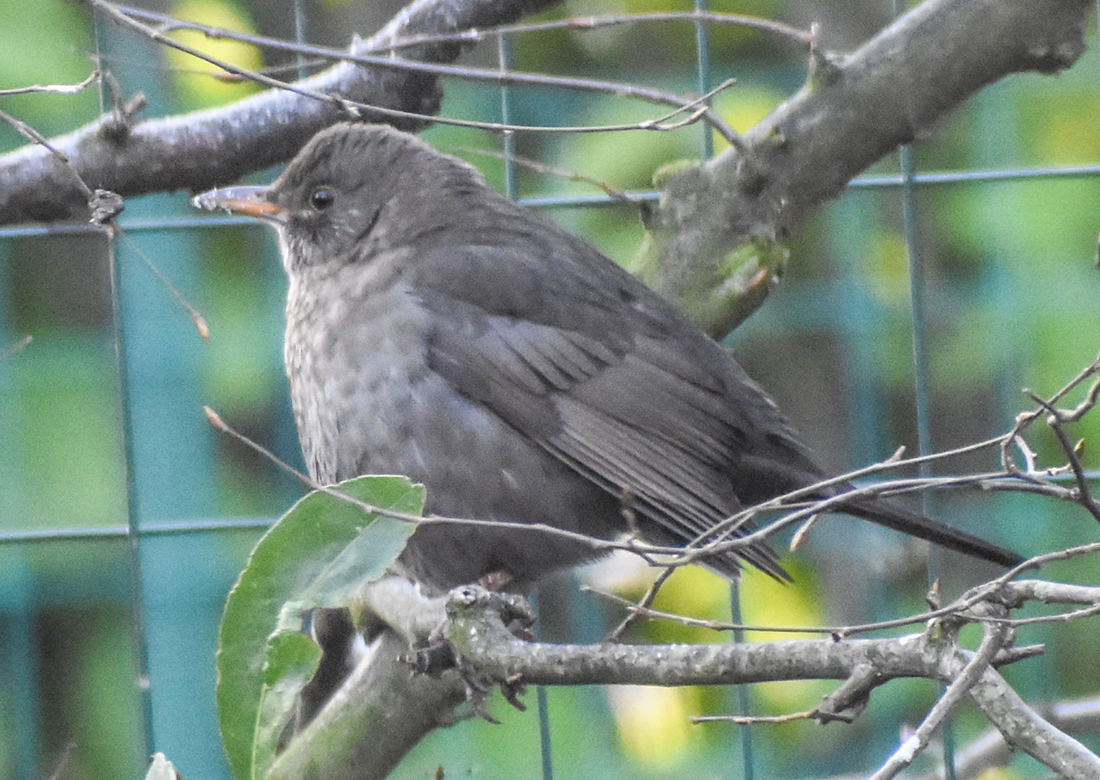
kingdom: Animalia
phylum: Chordata
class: Aves
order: Passeriformes
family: Turdidae
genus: Turdus
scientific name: Turdus merula
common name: Common blackbird
